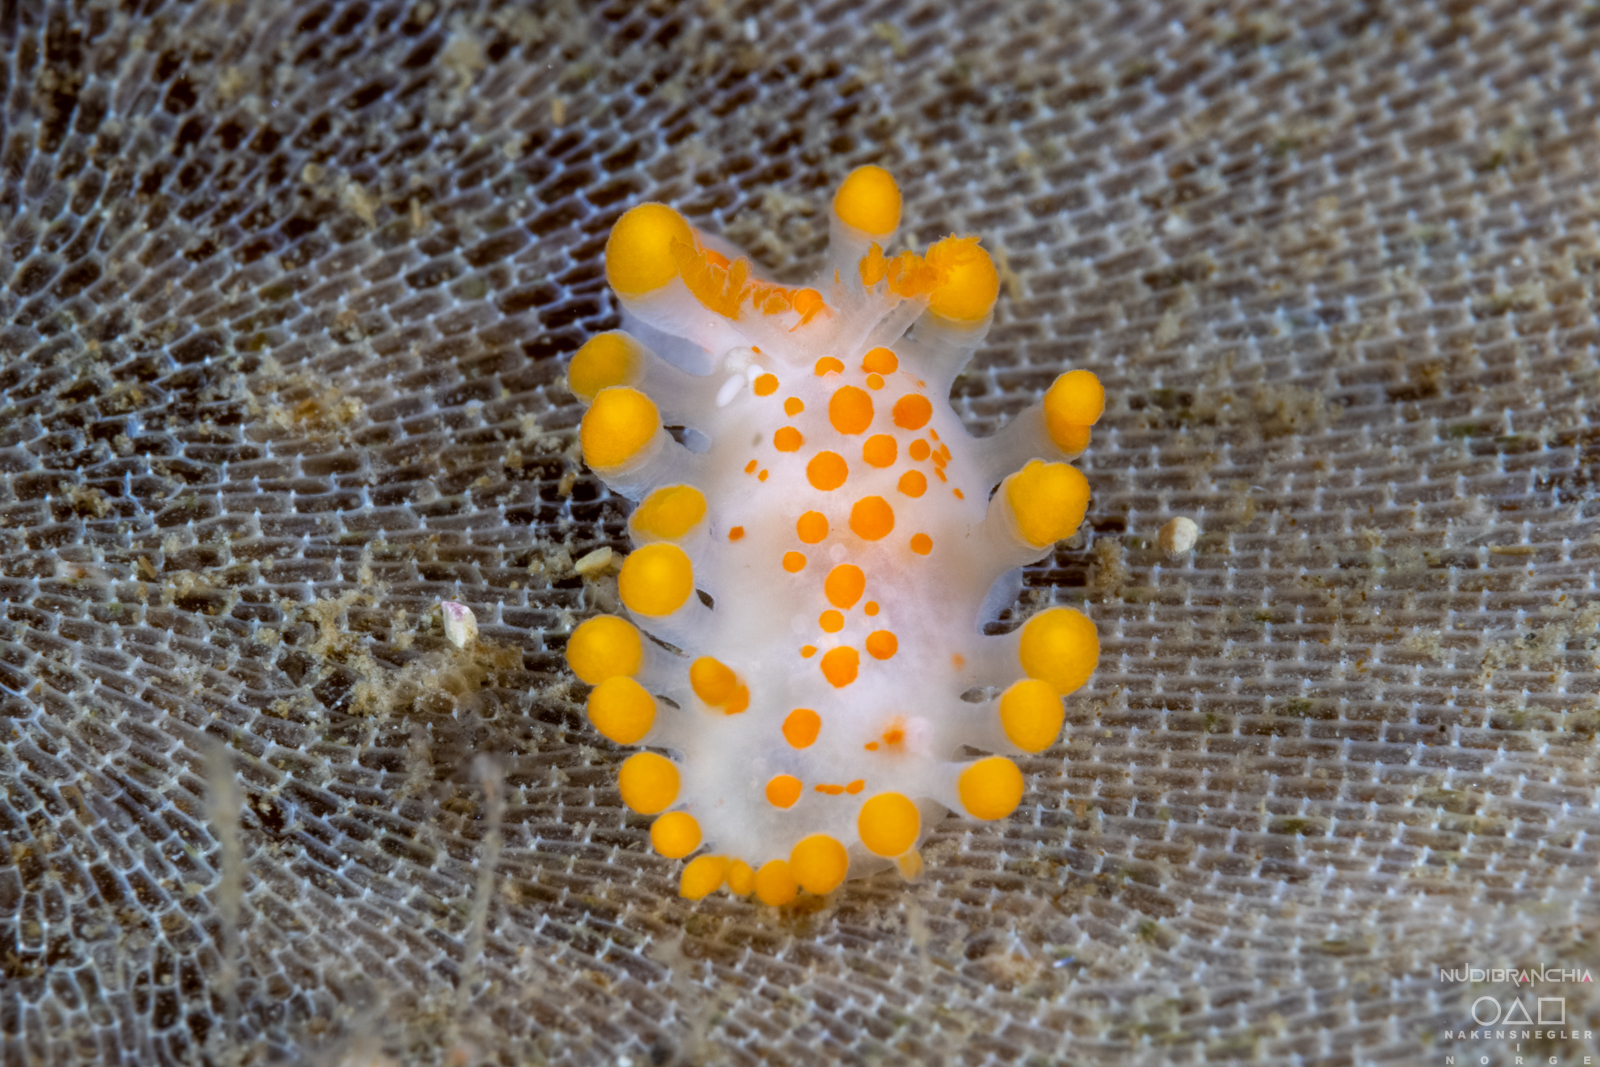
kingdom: Animalia
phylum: Mollusca
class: Gastropoda
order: Nudibranchia
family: Polyceridae
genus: Limacia
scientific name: Limacia clavigera
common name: Orange-clubbed sea slug
